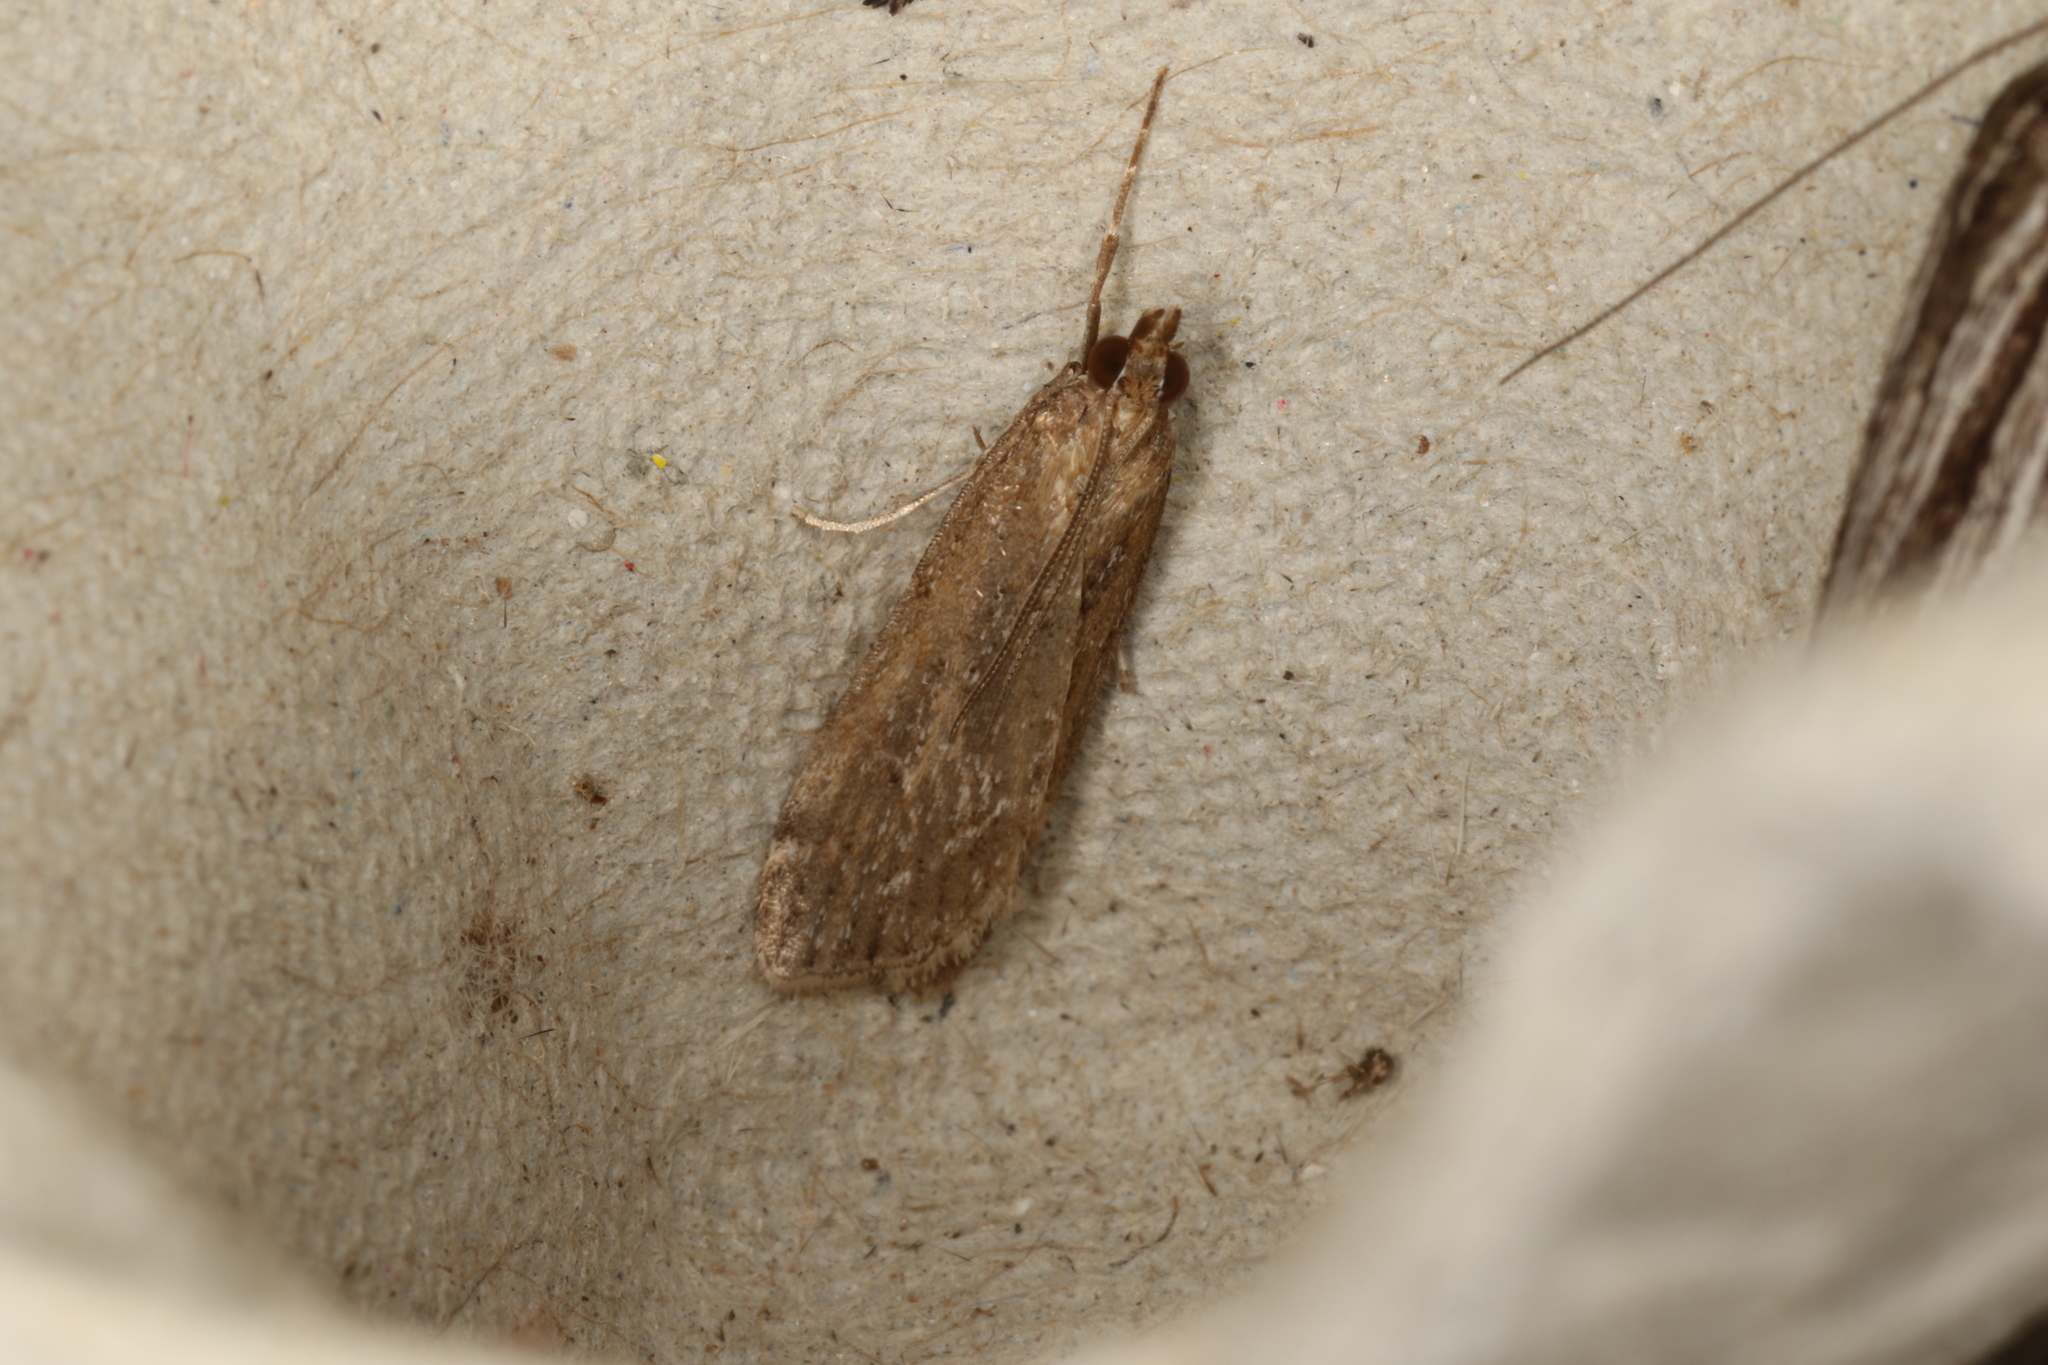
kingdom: Animalia
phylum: Arthropoda
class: Insecta
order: Lepidoptera
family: Crambidae
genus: Achyra
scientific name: Achyra affinitalis
